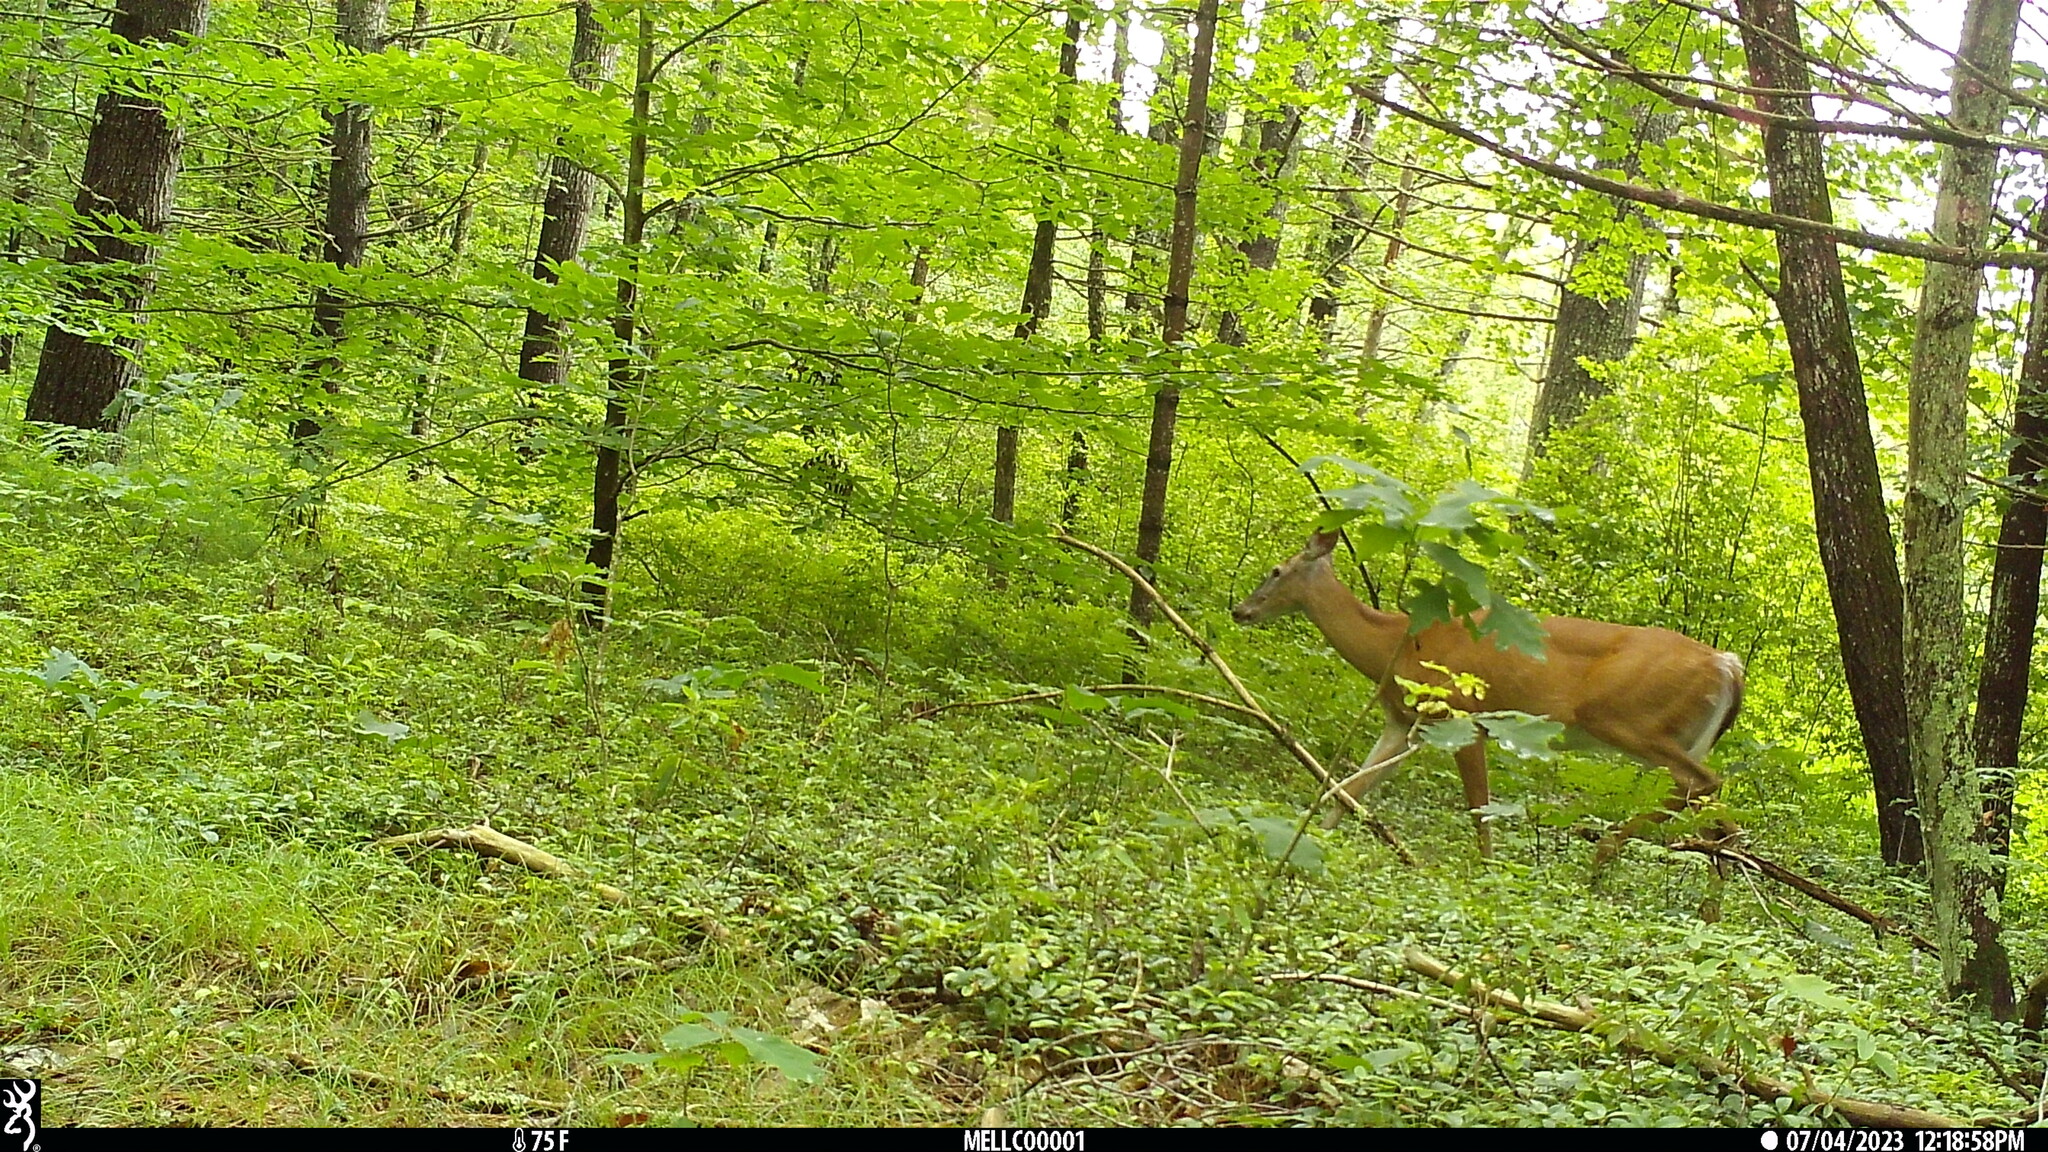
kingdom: Animalia
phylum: Chordata
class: Mammalia
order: Artiodactyla
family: Cervidae
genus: Odocoileus
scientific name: Odocoileus virginianus
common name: White-tailed deer
